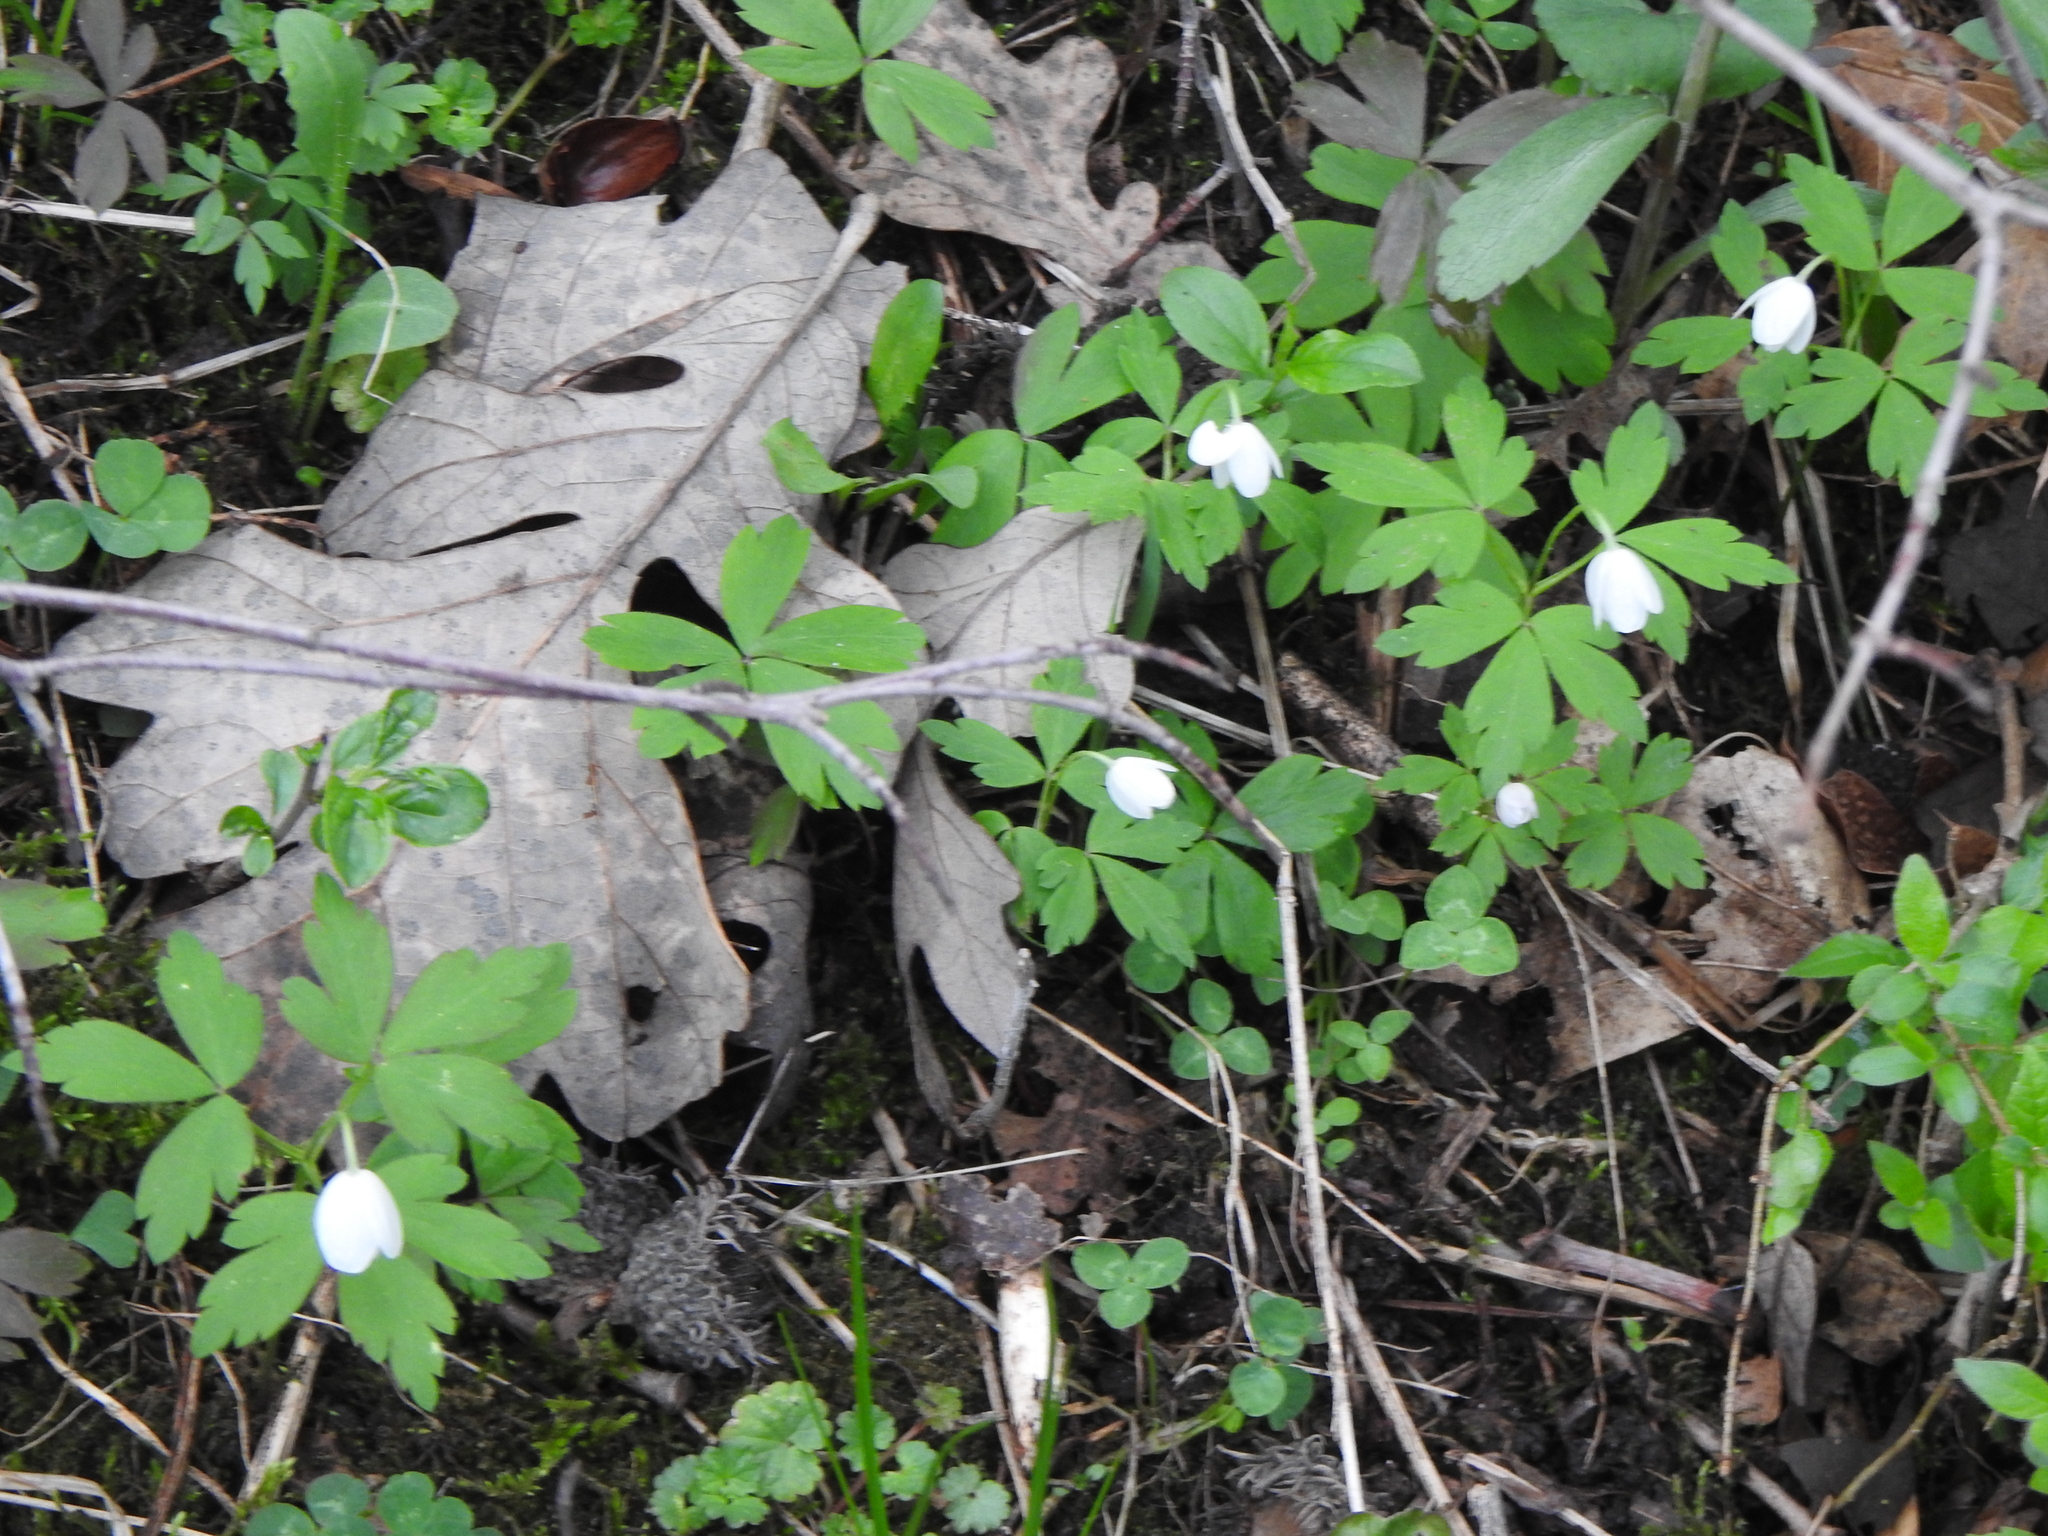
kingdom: Plantae
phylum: Tracheophyta
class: Magnoliopsida
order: Ranunculales
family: Ranunculaceae
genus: Anemone
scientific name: Anemone quinquefolia
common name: Wood anemone
